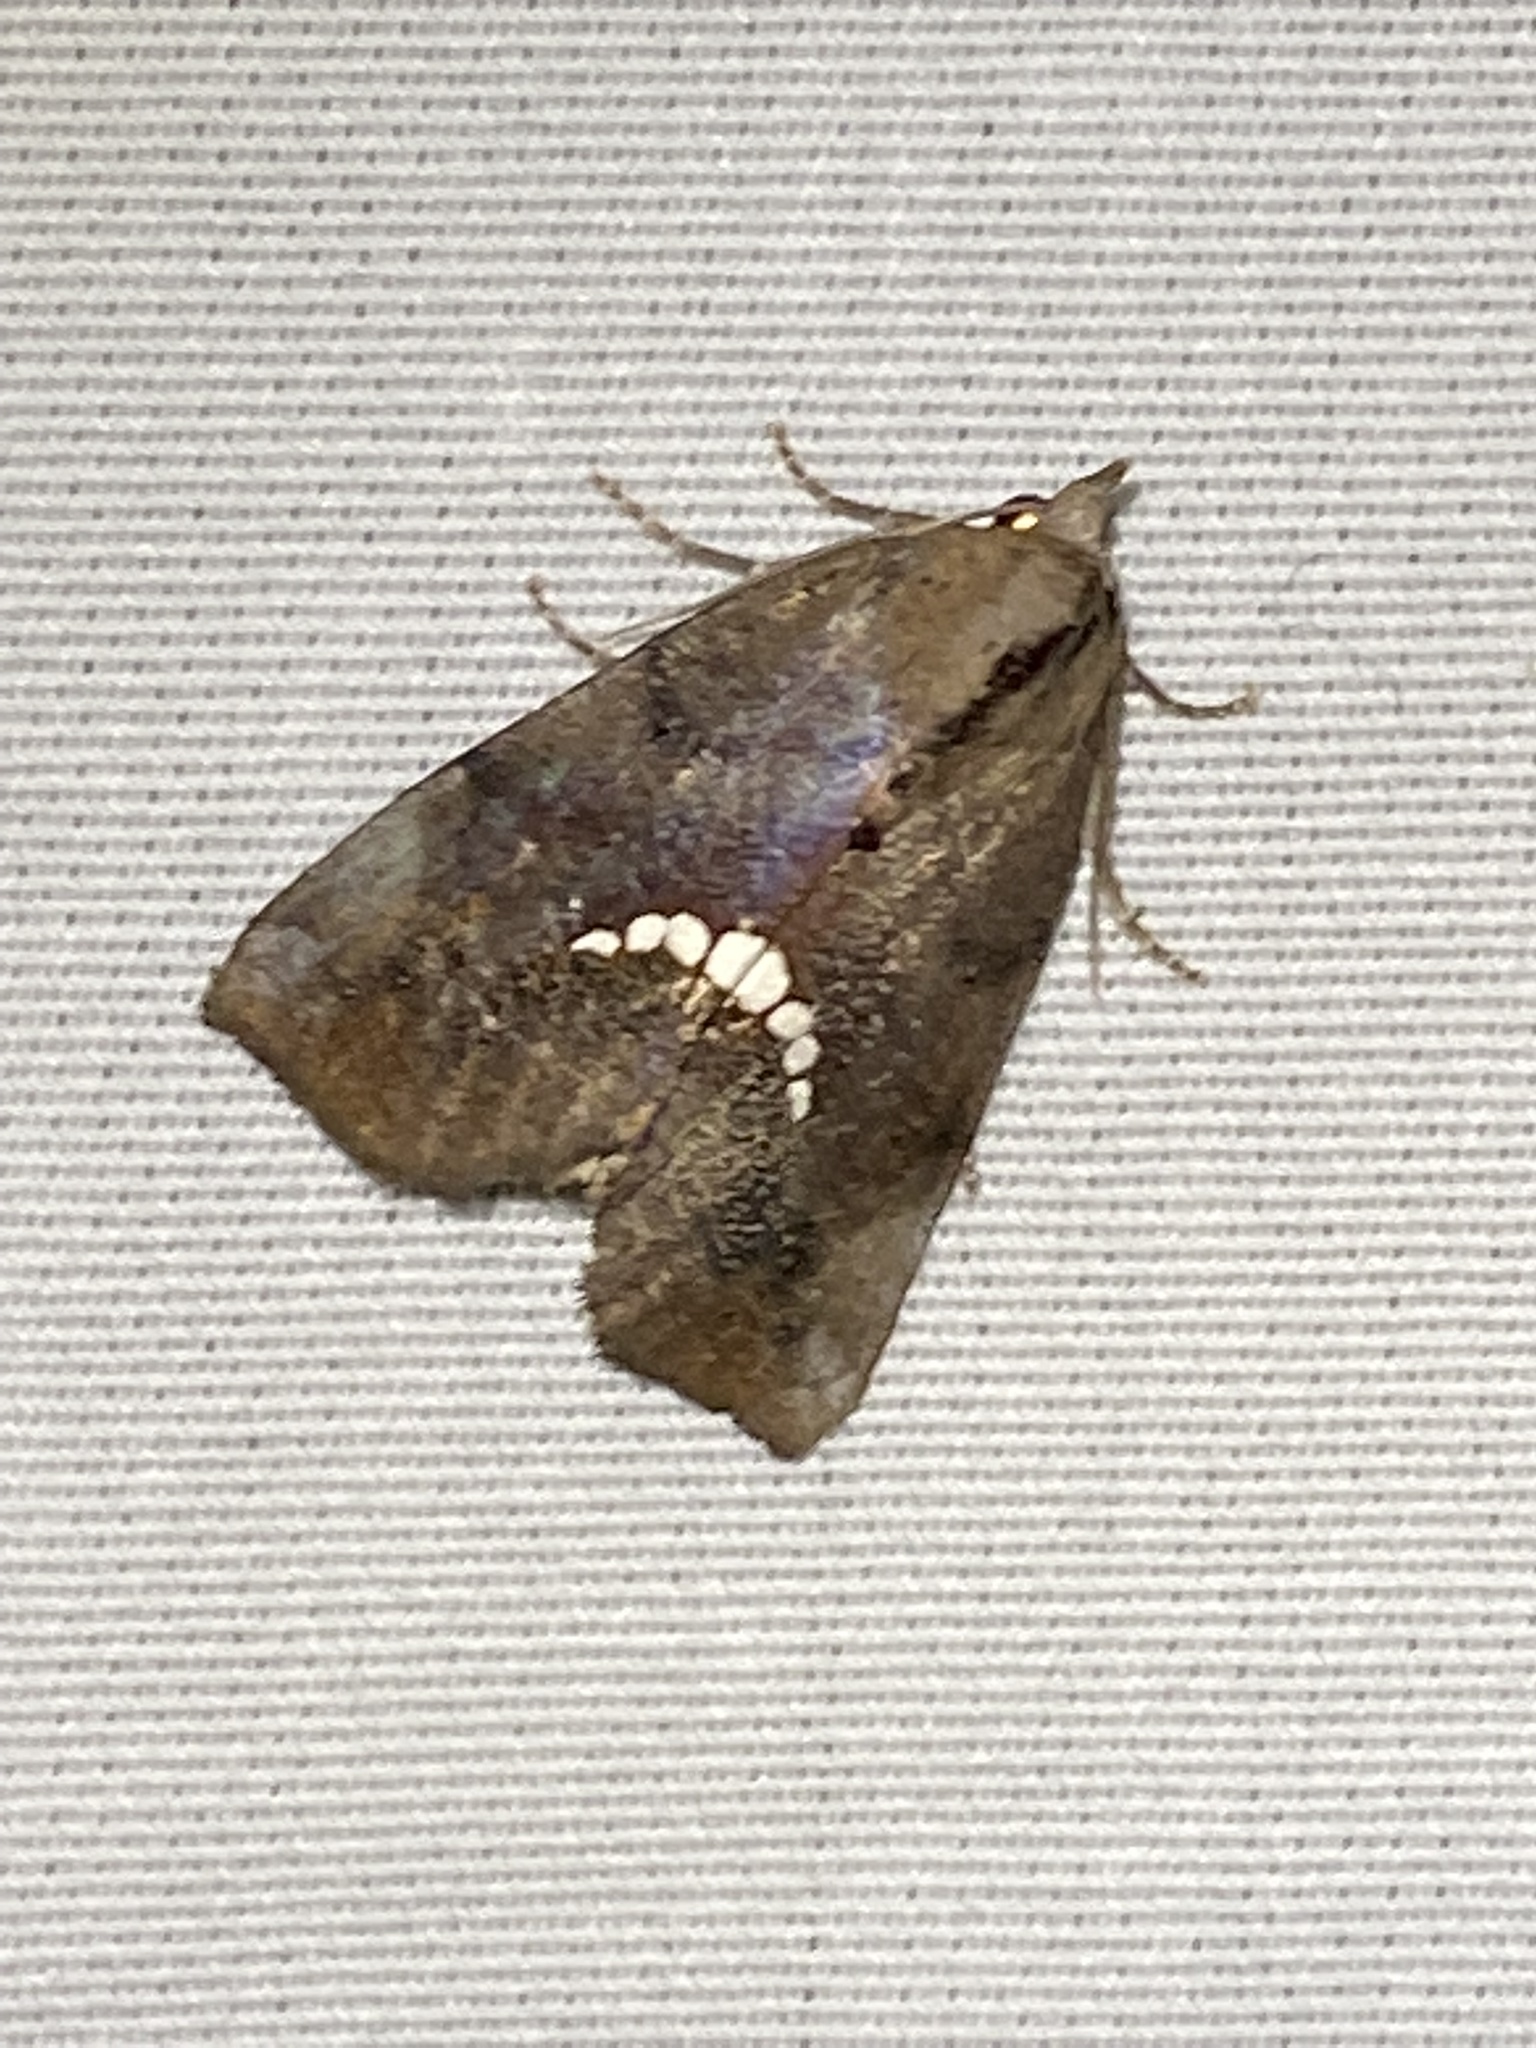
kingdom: Animalia
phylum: Arthropoda
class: Insecta
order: Lepidoptera
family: Erebidae
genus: Hypsoropha
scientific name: Hypsoropha hormos
